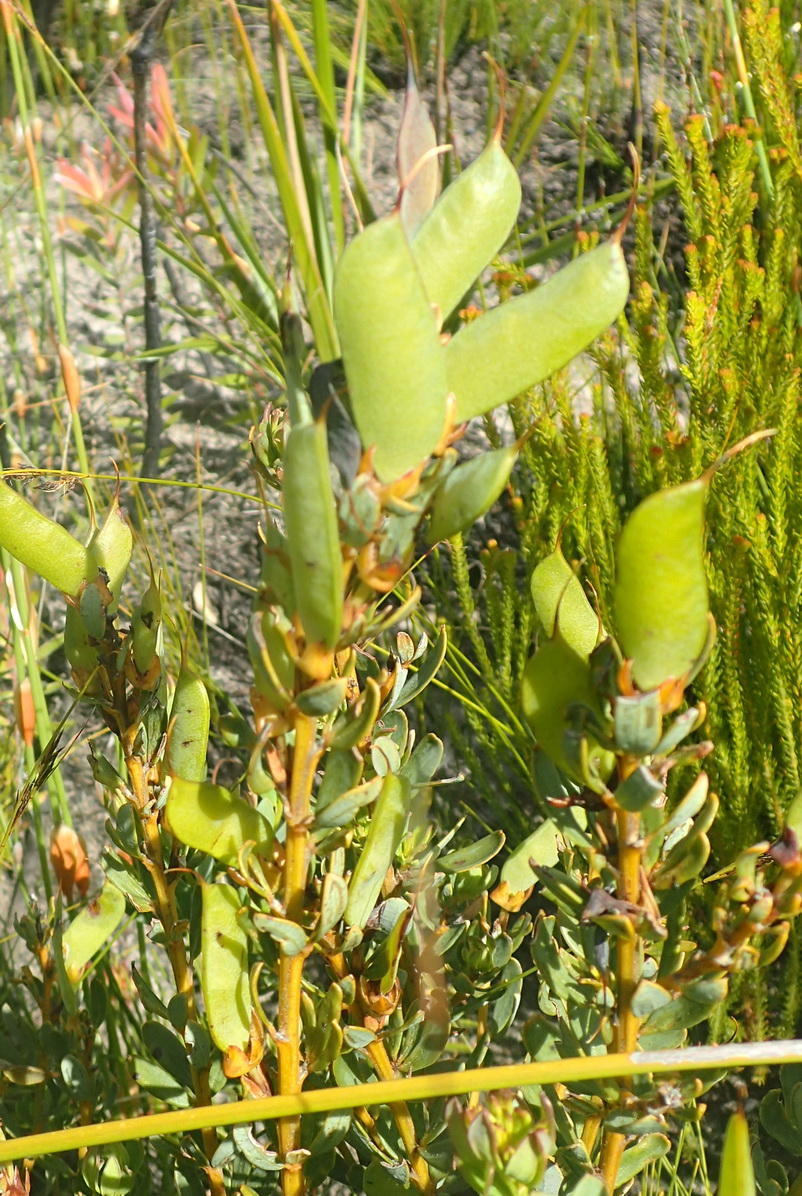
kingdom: Plantae
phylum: Tracheophyta
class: Magnoliopsida
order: Fabales
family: Fabaceae
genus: Cyclopia
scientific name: Cyclopia intermedia
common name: Mountain tea
